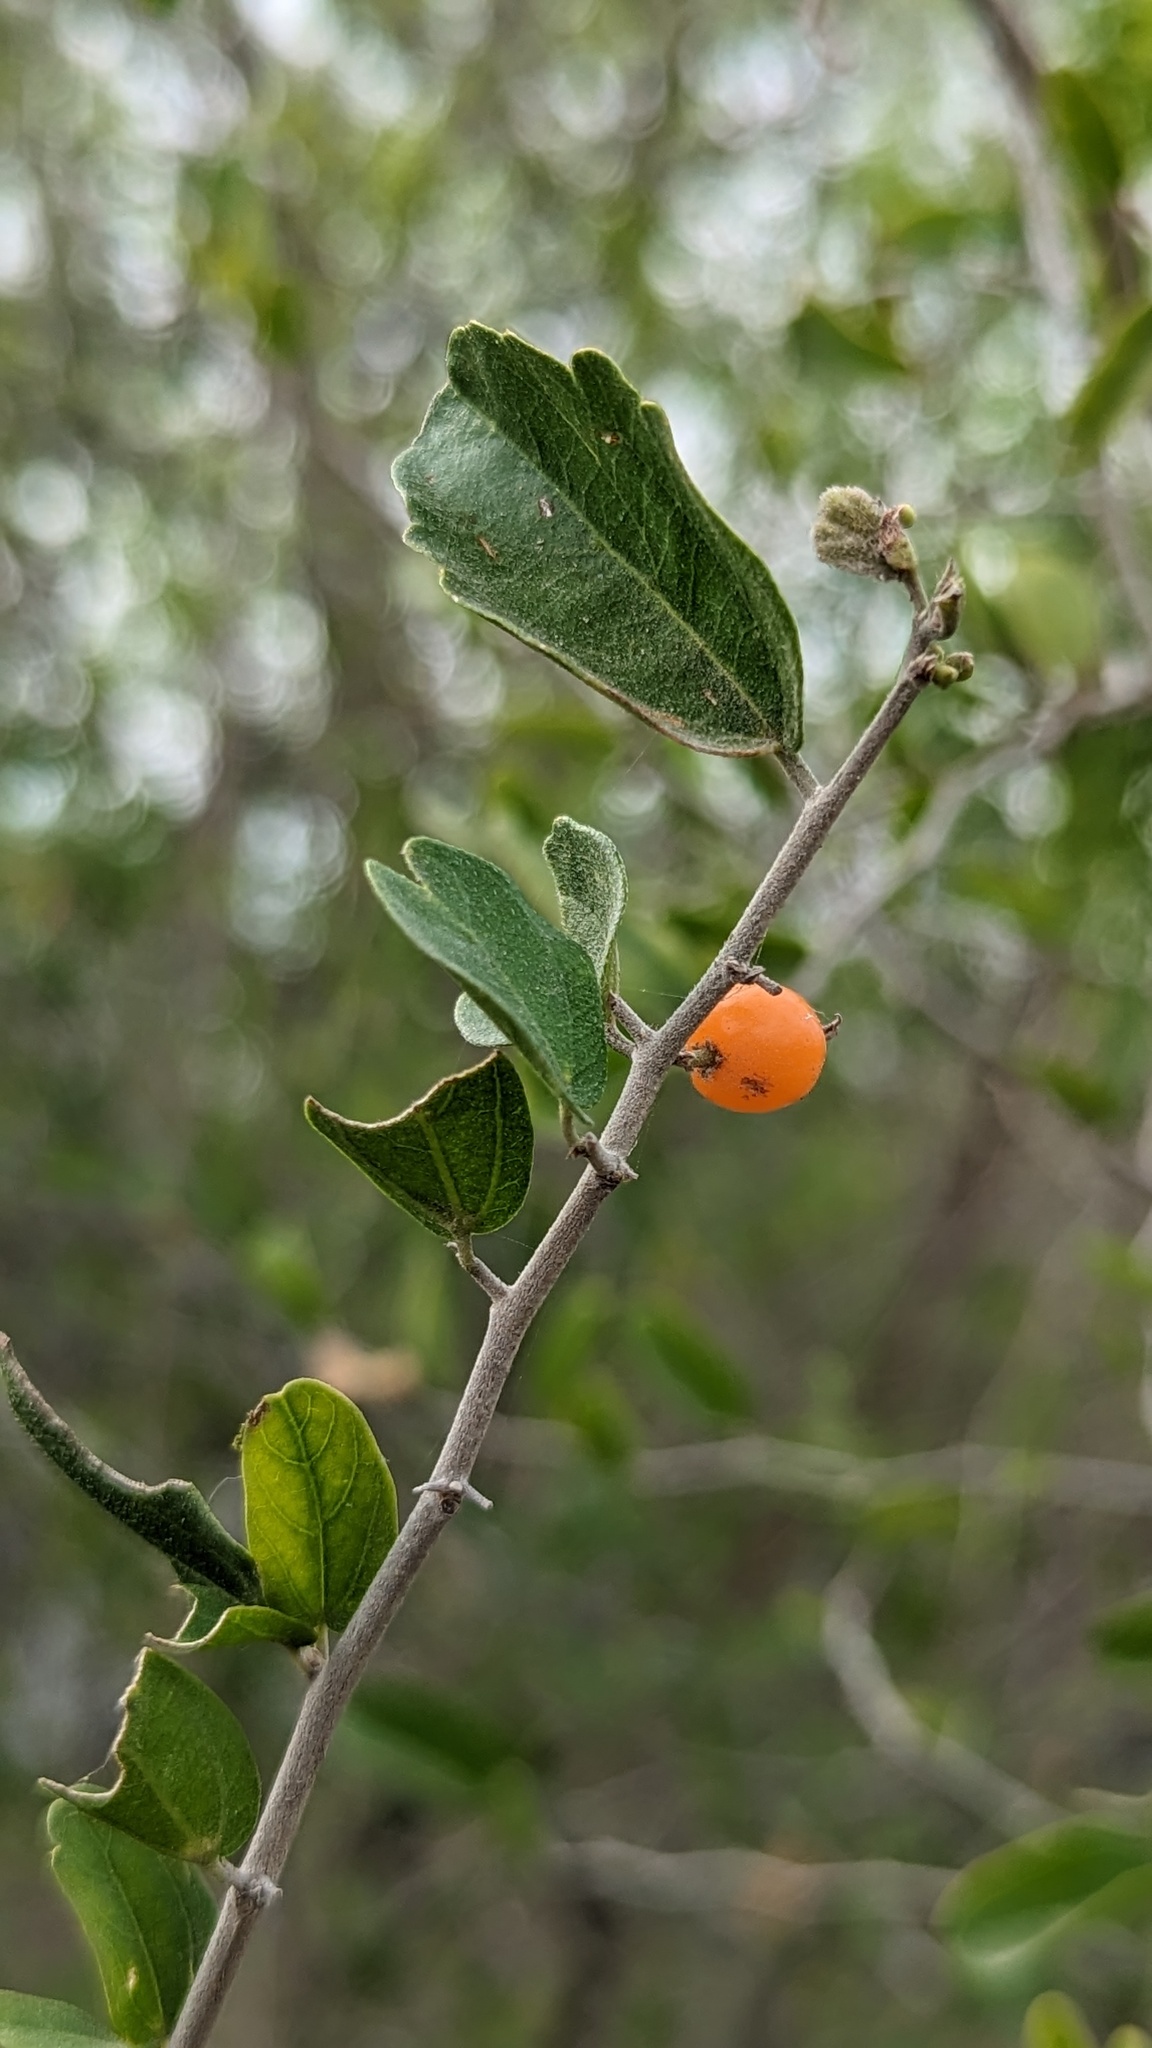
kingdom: Plantae
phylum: Tracheophyta
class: Magnoliopsida
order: Rosales
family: Cannabaceae
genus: Celtis
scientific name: Celtis pallida
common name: Desert hackberry
